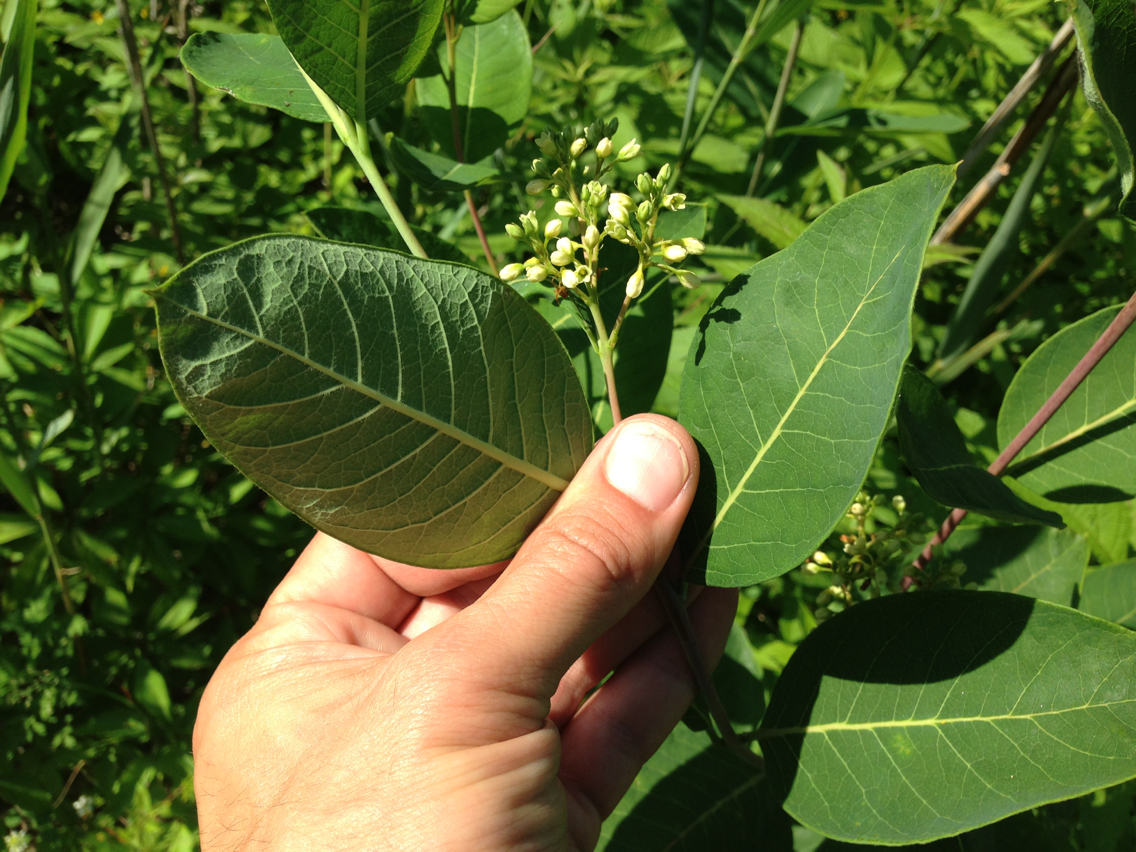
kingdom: Plantae
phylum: Tracheophyta
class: Magnoliopsida
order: Gentianales
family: Apocynaceae
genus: Apocynum
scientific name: Apocynum cannabinum
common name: Hemp dogbane
